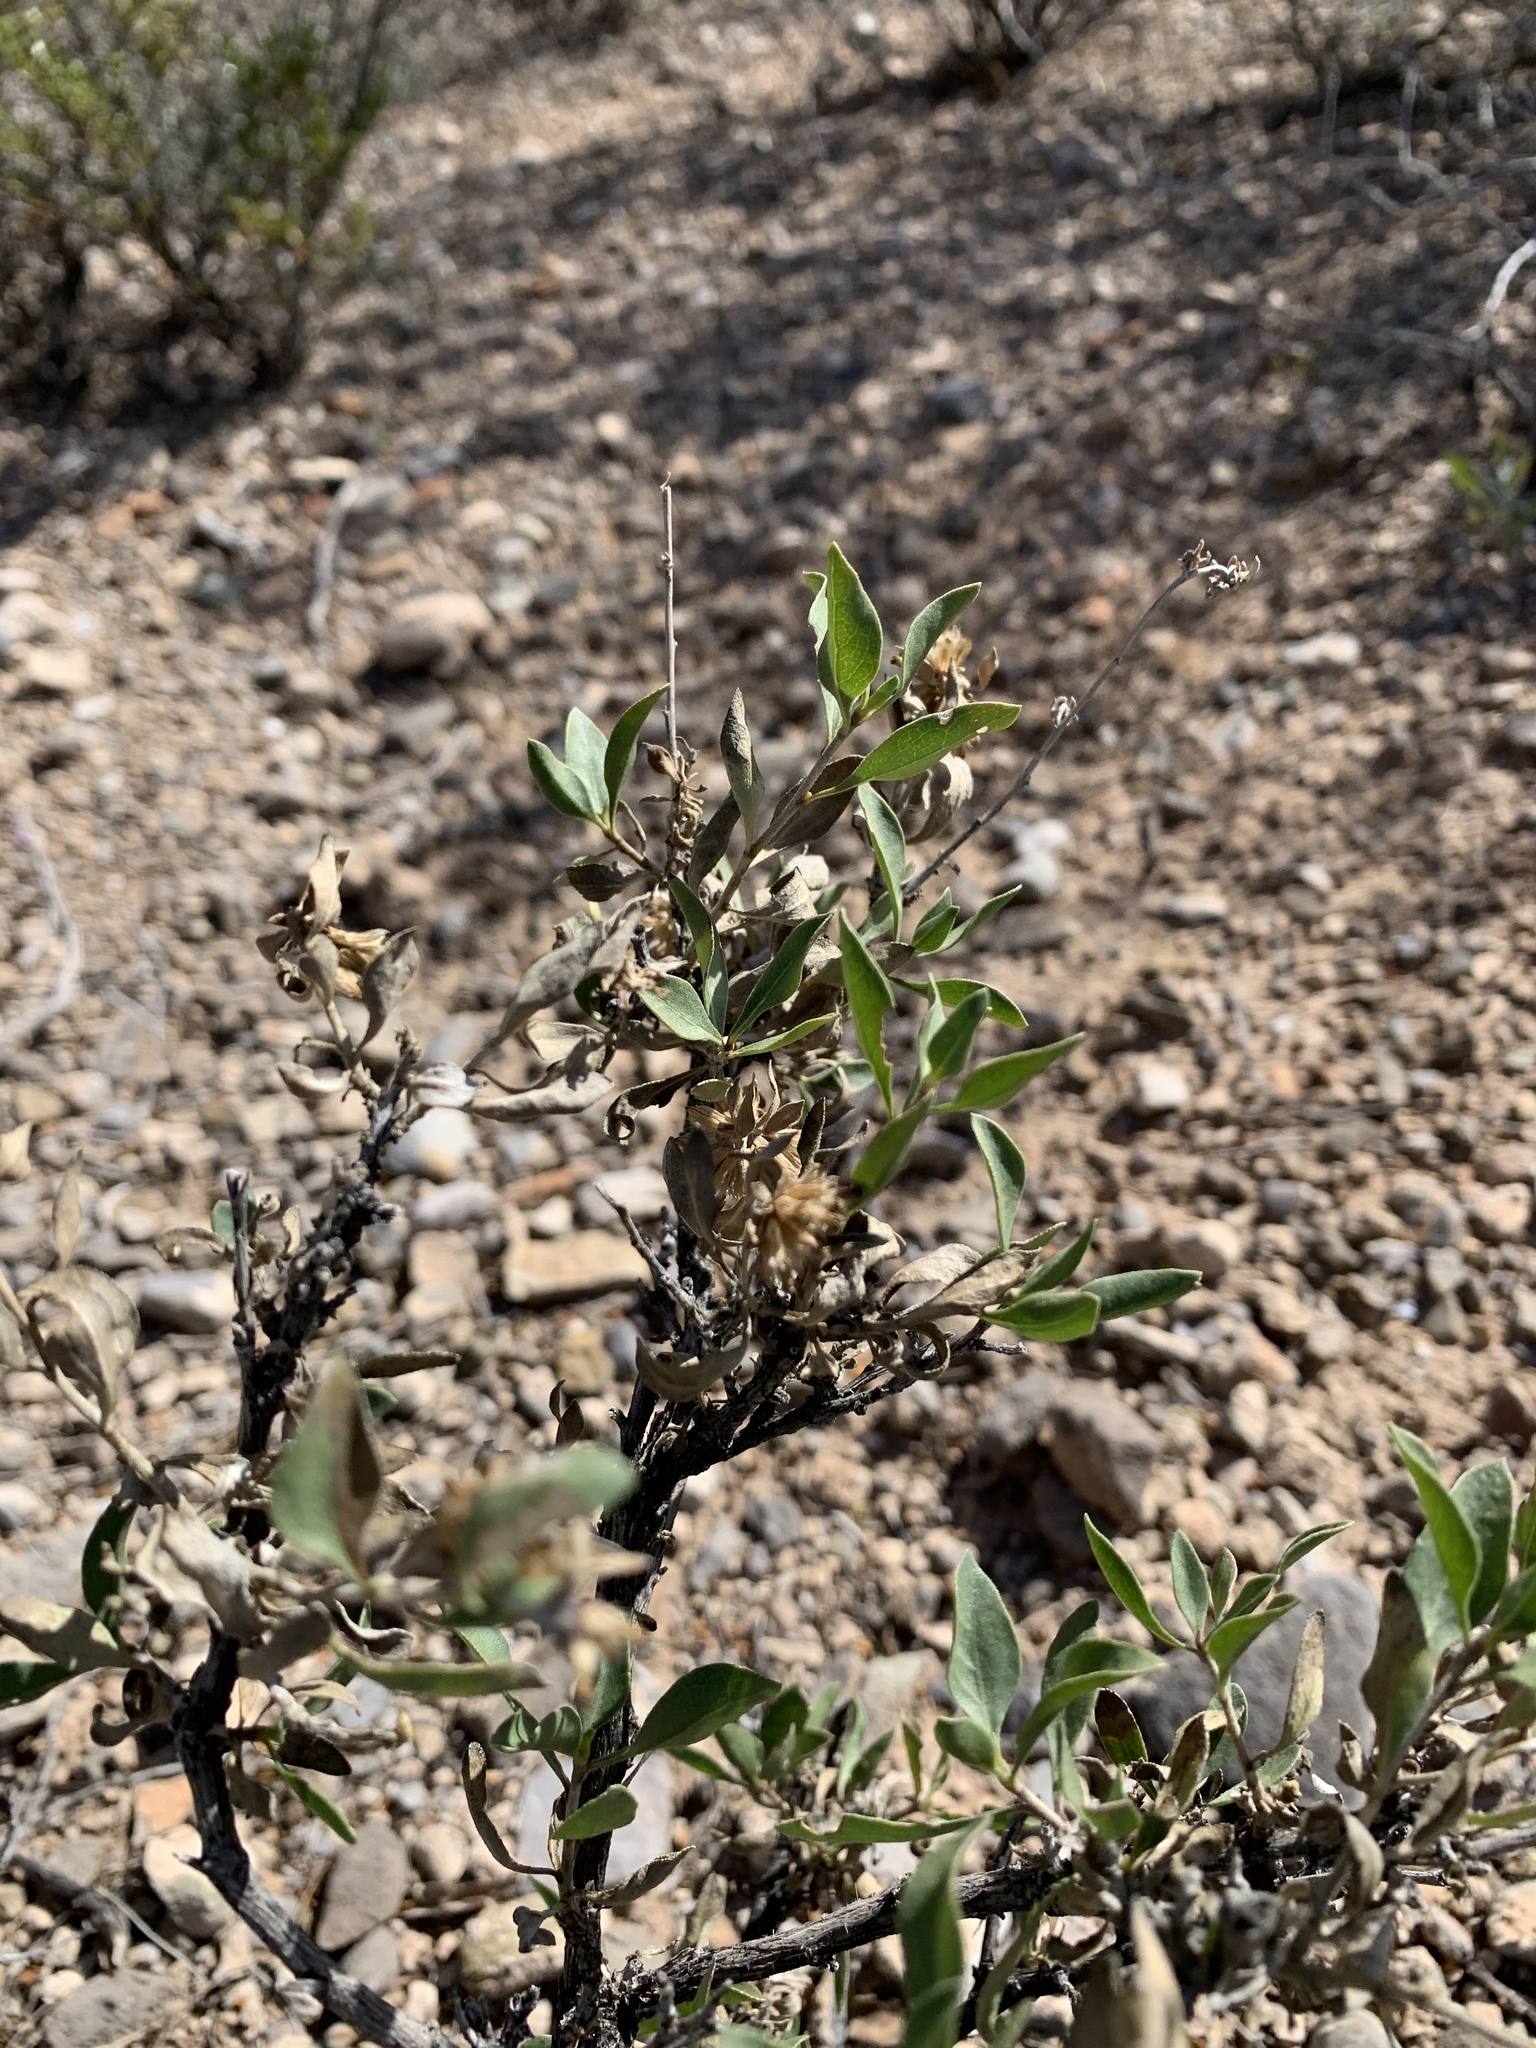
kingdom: Plantae
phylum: Tracheophyta
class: Magnoliopsida
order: Asterales
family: Asteraceae
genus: Flourensia
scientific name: Flourensia cernua
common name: Varnishbush
